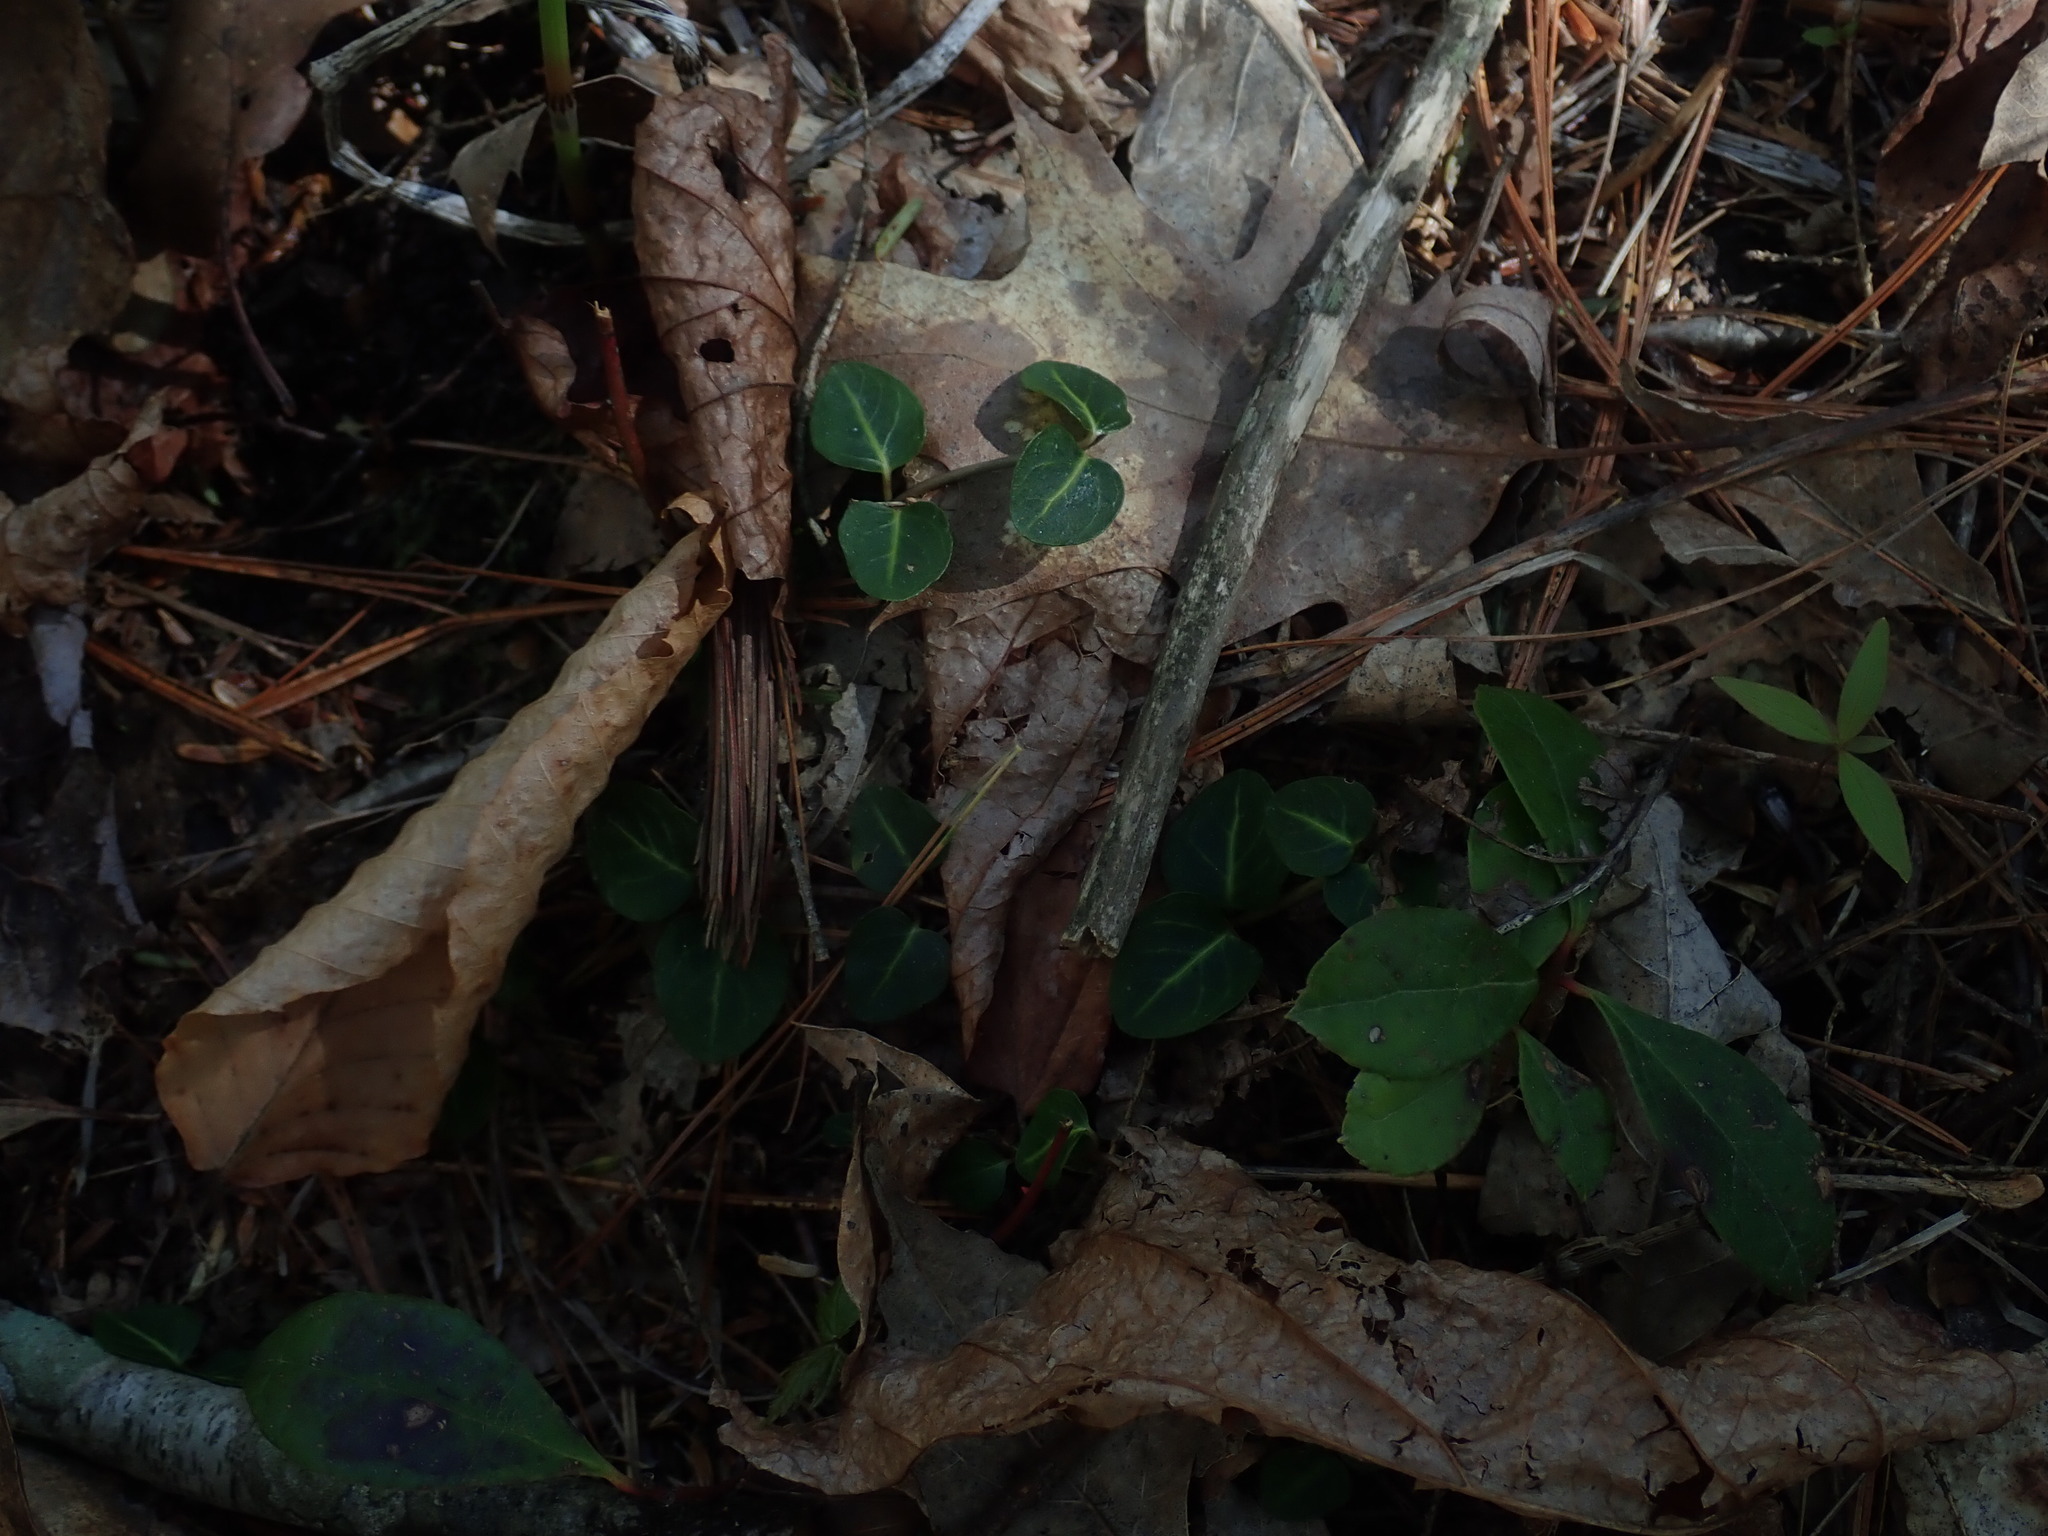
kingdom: Plantae
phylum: Tracheophyta
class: Magnoliopsida
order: Gentianales
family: Rubiaceae
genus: Mitchella
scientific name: Mitchella repens
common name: Partridge-berry
